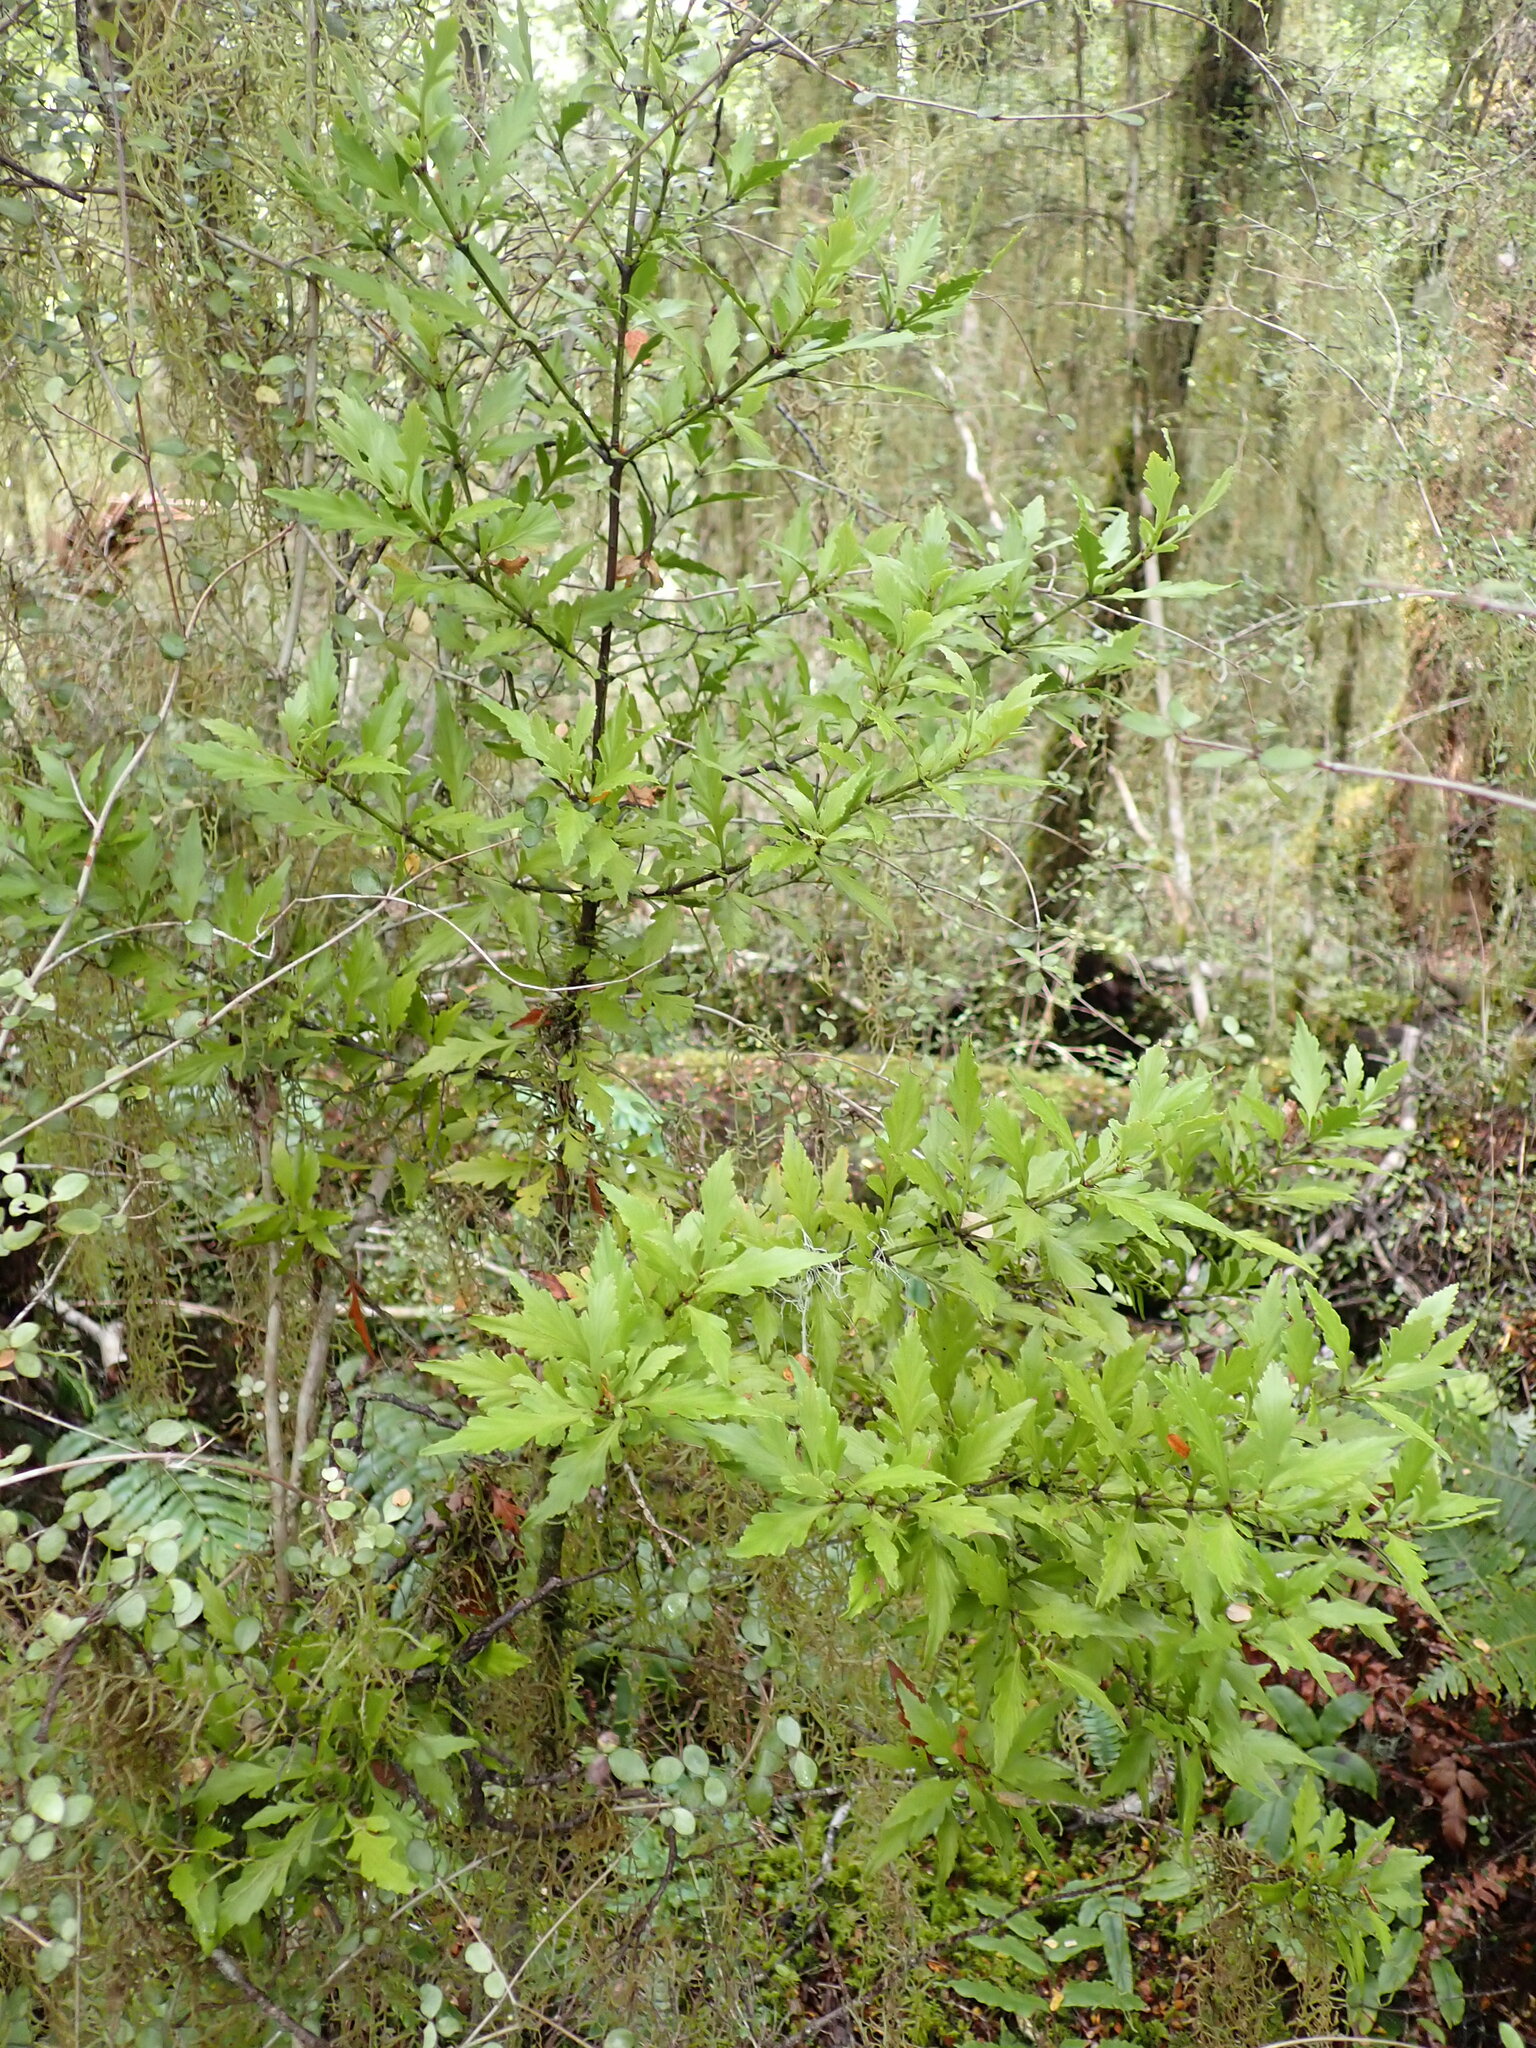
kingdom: Plantae
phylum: Tracheophyta
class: Pinopsida
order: Pinales
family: Phyllocladaceae
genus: Phyllocladus
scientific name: Phyllocladus trichomanoides
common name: Celery pine
